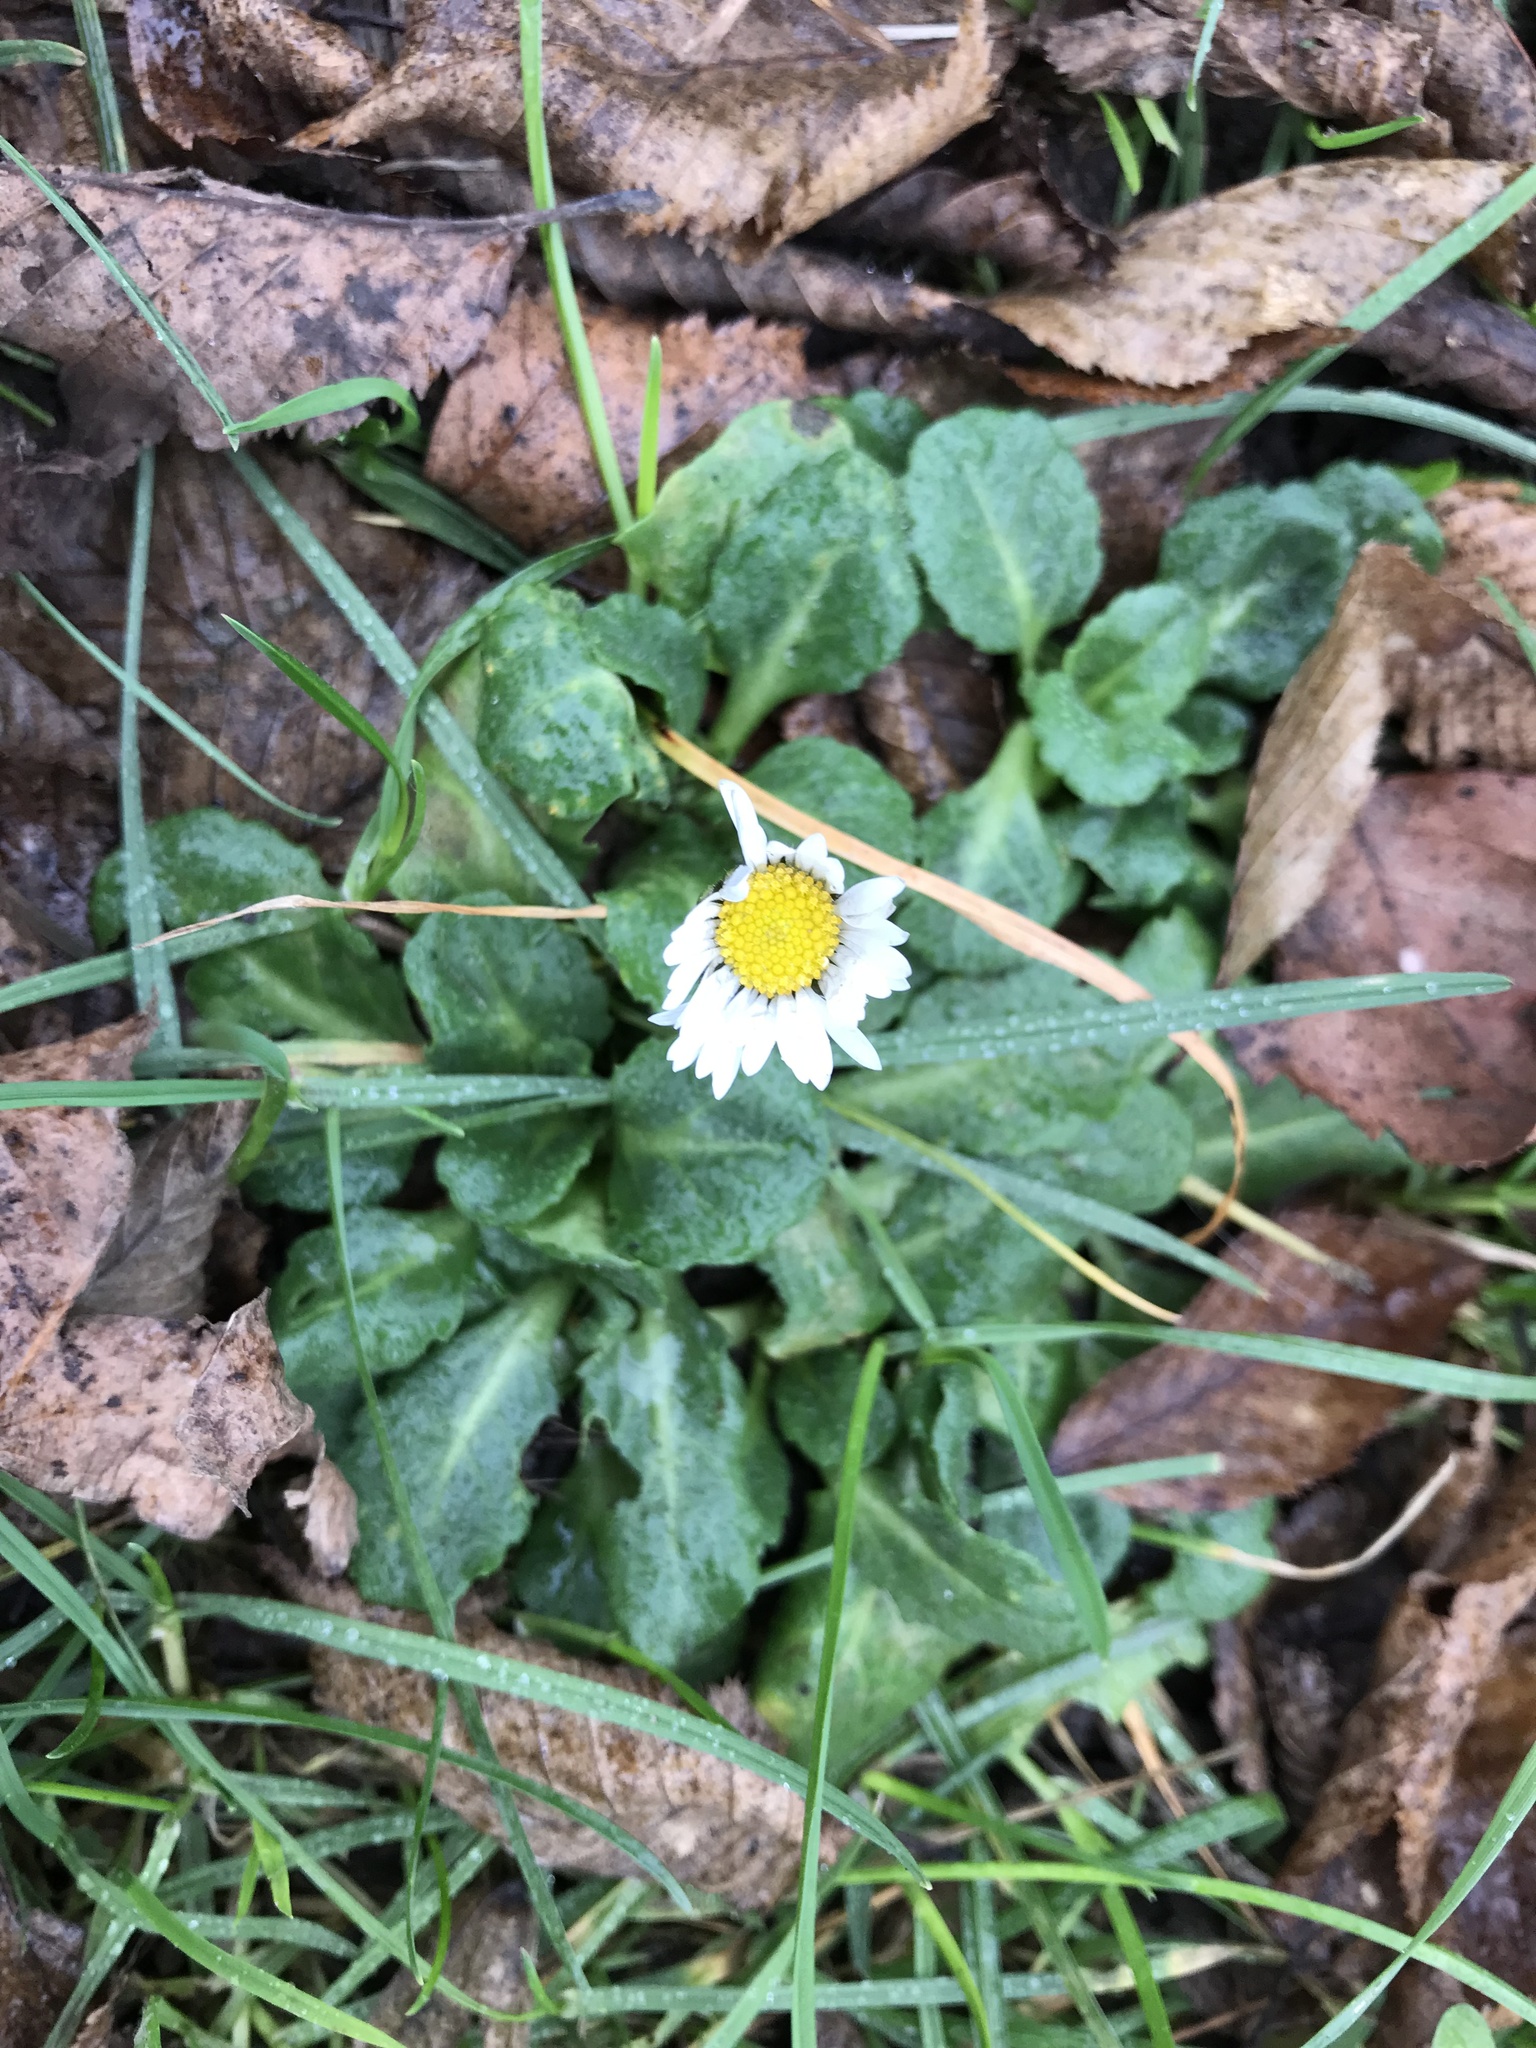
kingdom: Plantae
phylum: Tracheophyta
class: Magnoliopsida
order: Asterales
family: Asteraceae
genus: Bellis
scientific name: Bellis perennis
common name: Lawndaisy
